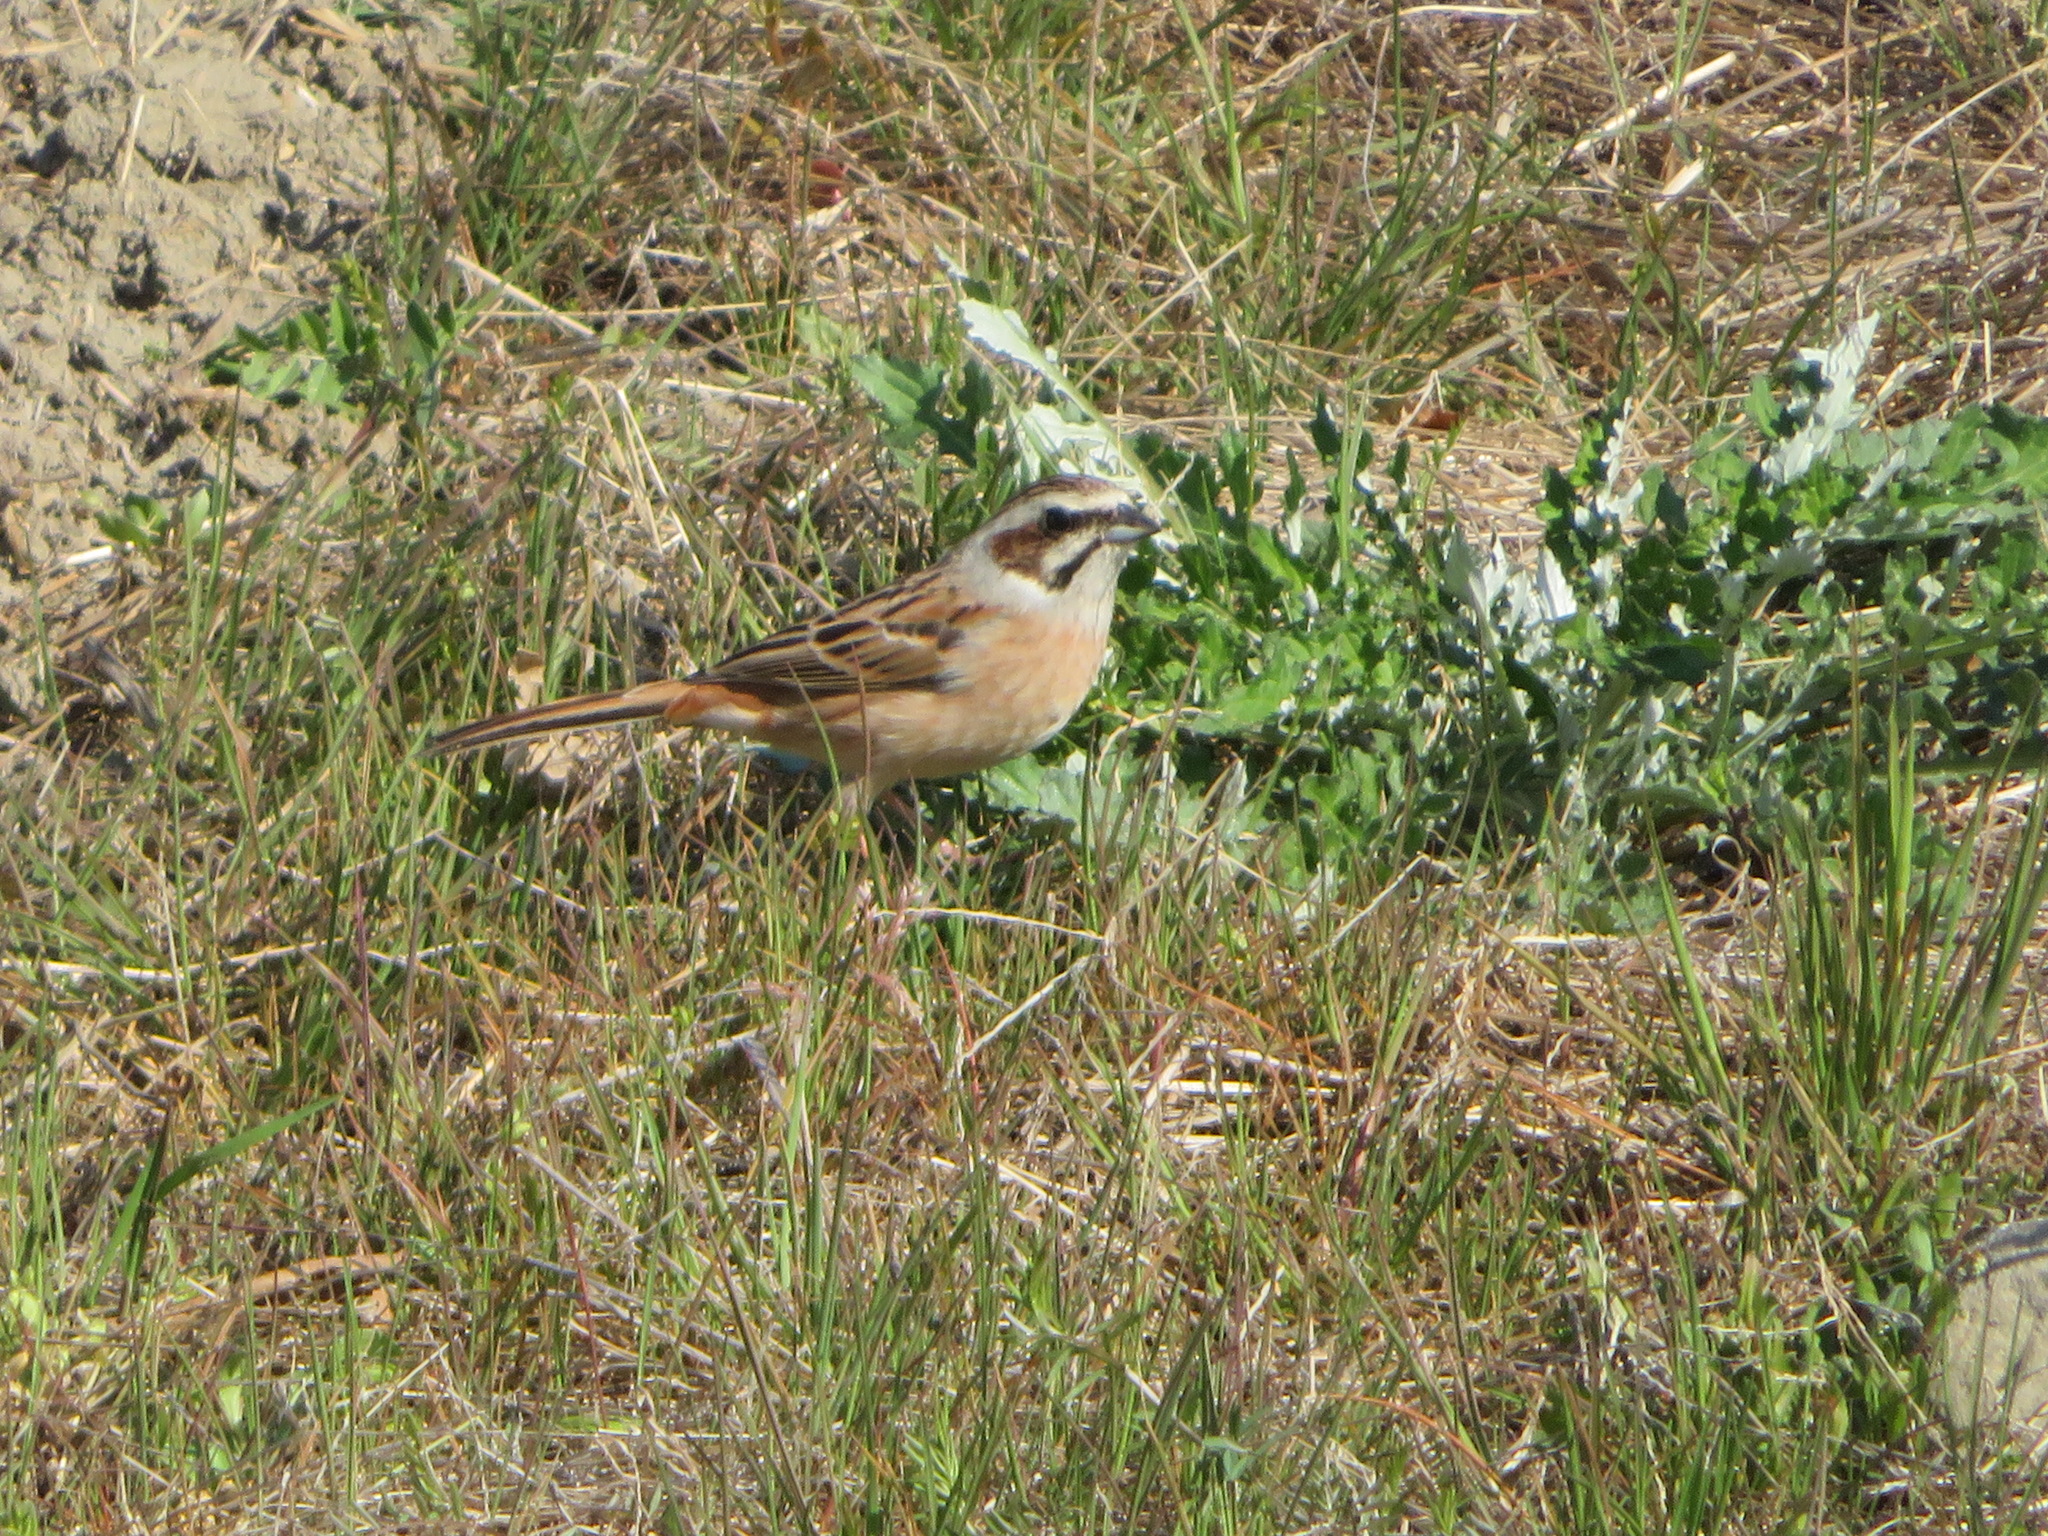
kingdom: Animalia
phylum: Chordata
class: Aves
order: Passeriformes
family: Emberizidae
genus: Emberiza
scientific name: Emberiza cioides
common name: Meadow bunting
